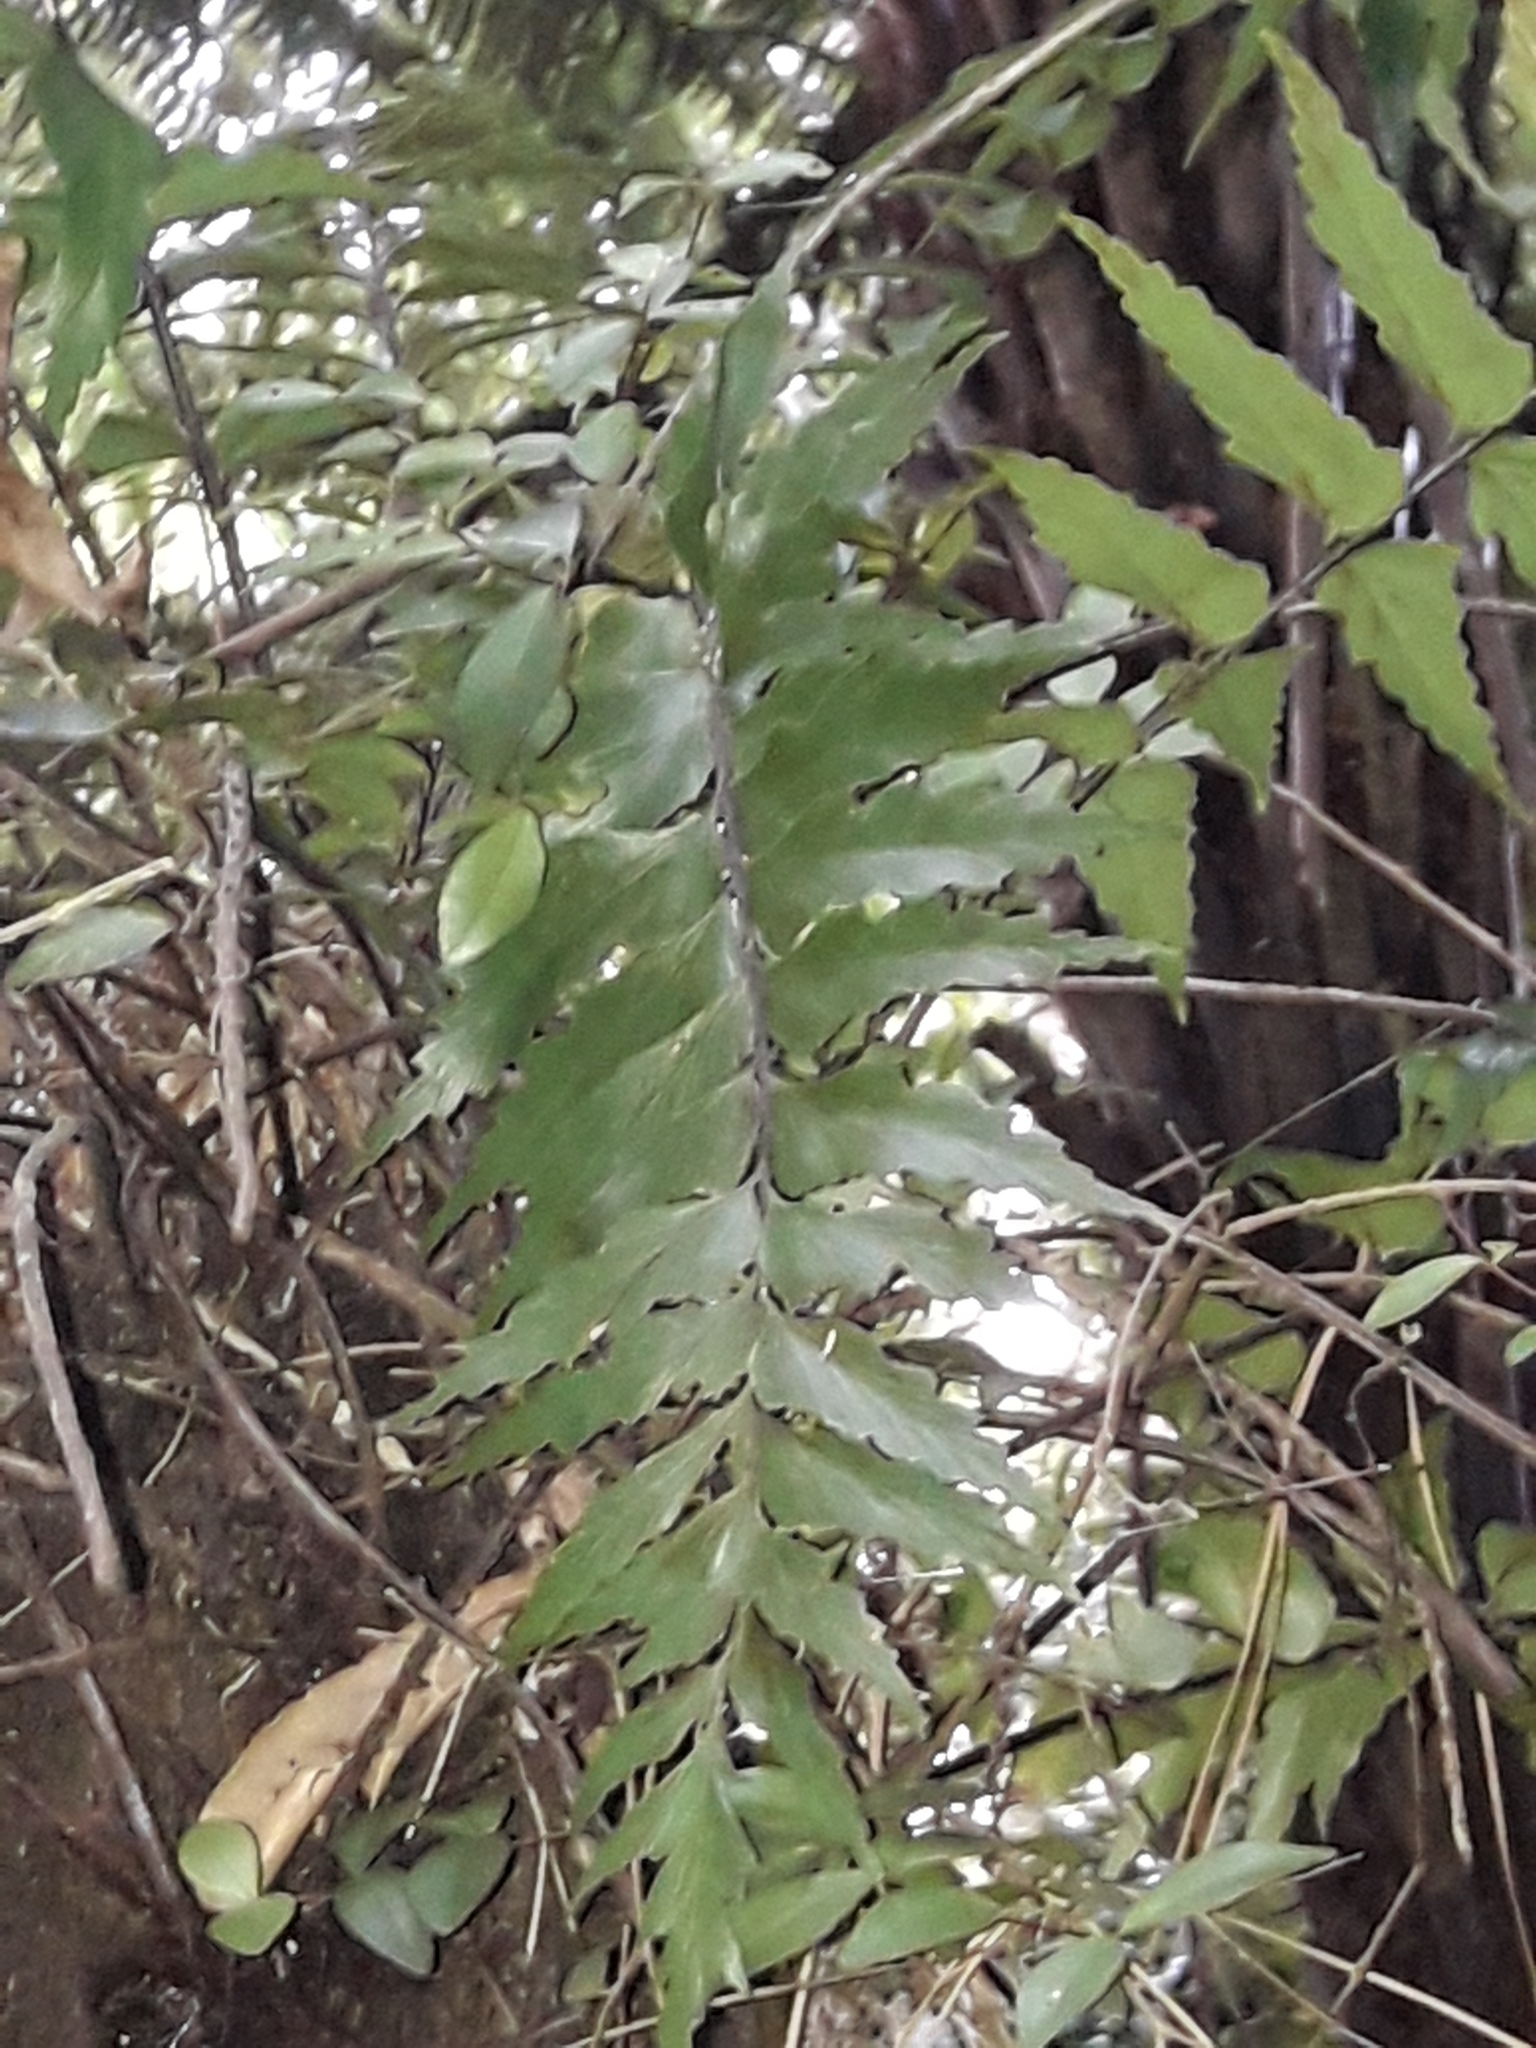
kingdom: Plantae
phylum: Tracheophyta
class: Polypodiopsida
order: Polypodiales
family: Aspleniaceae
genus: Asplenium
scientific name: Asplenium polyodon
